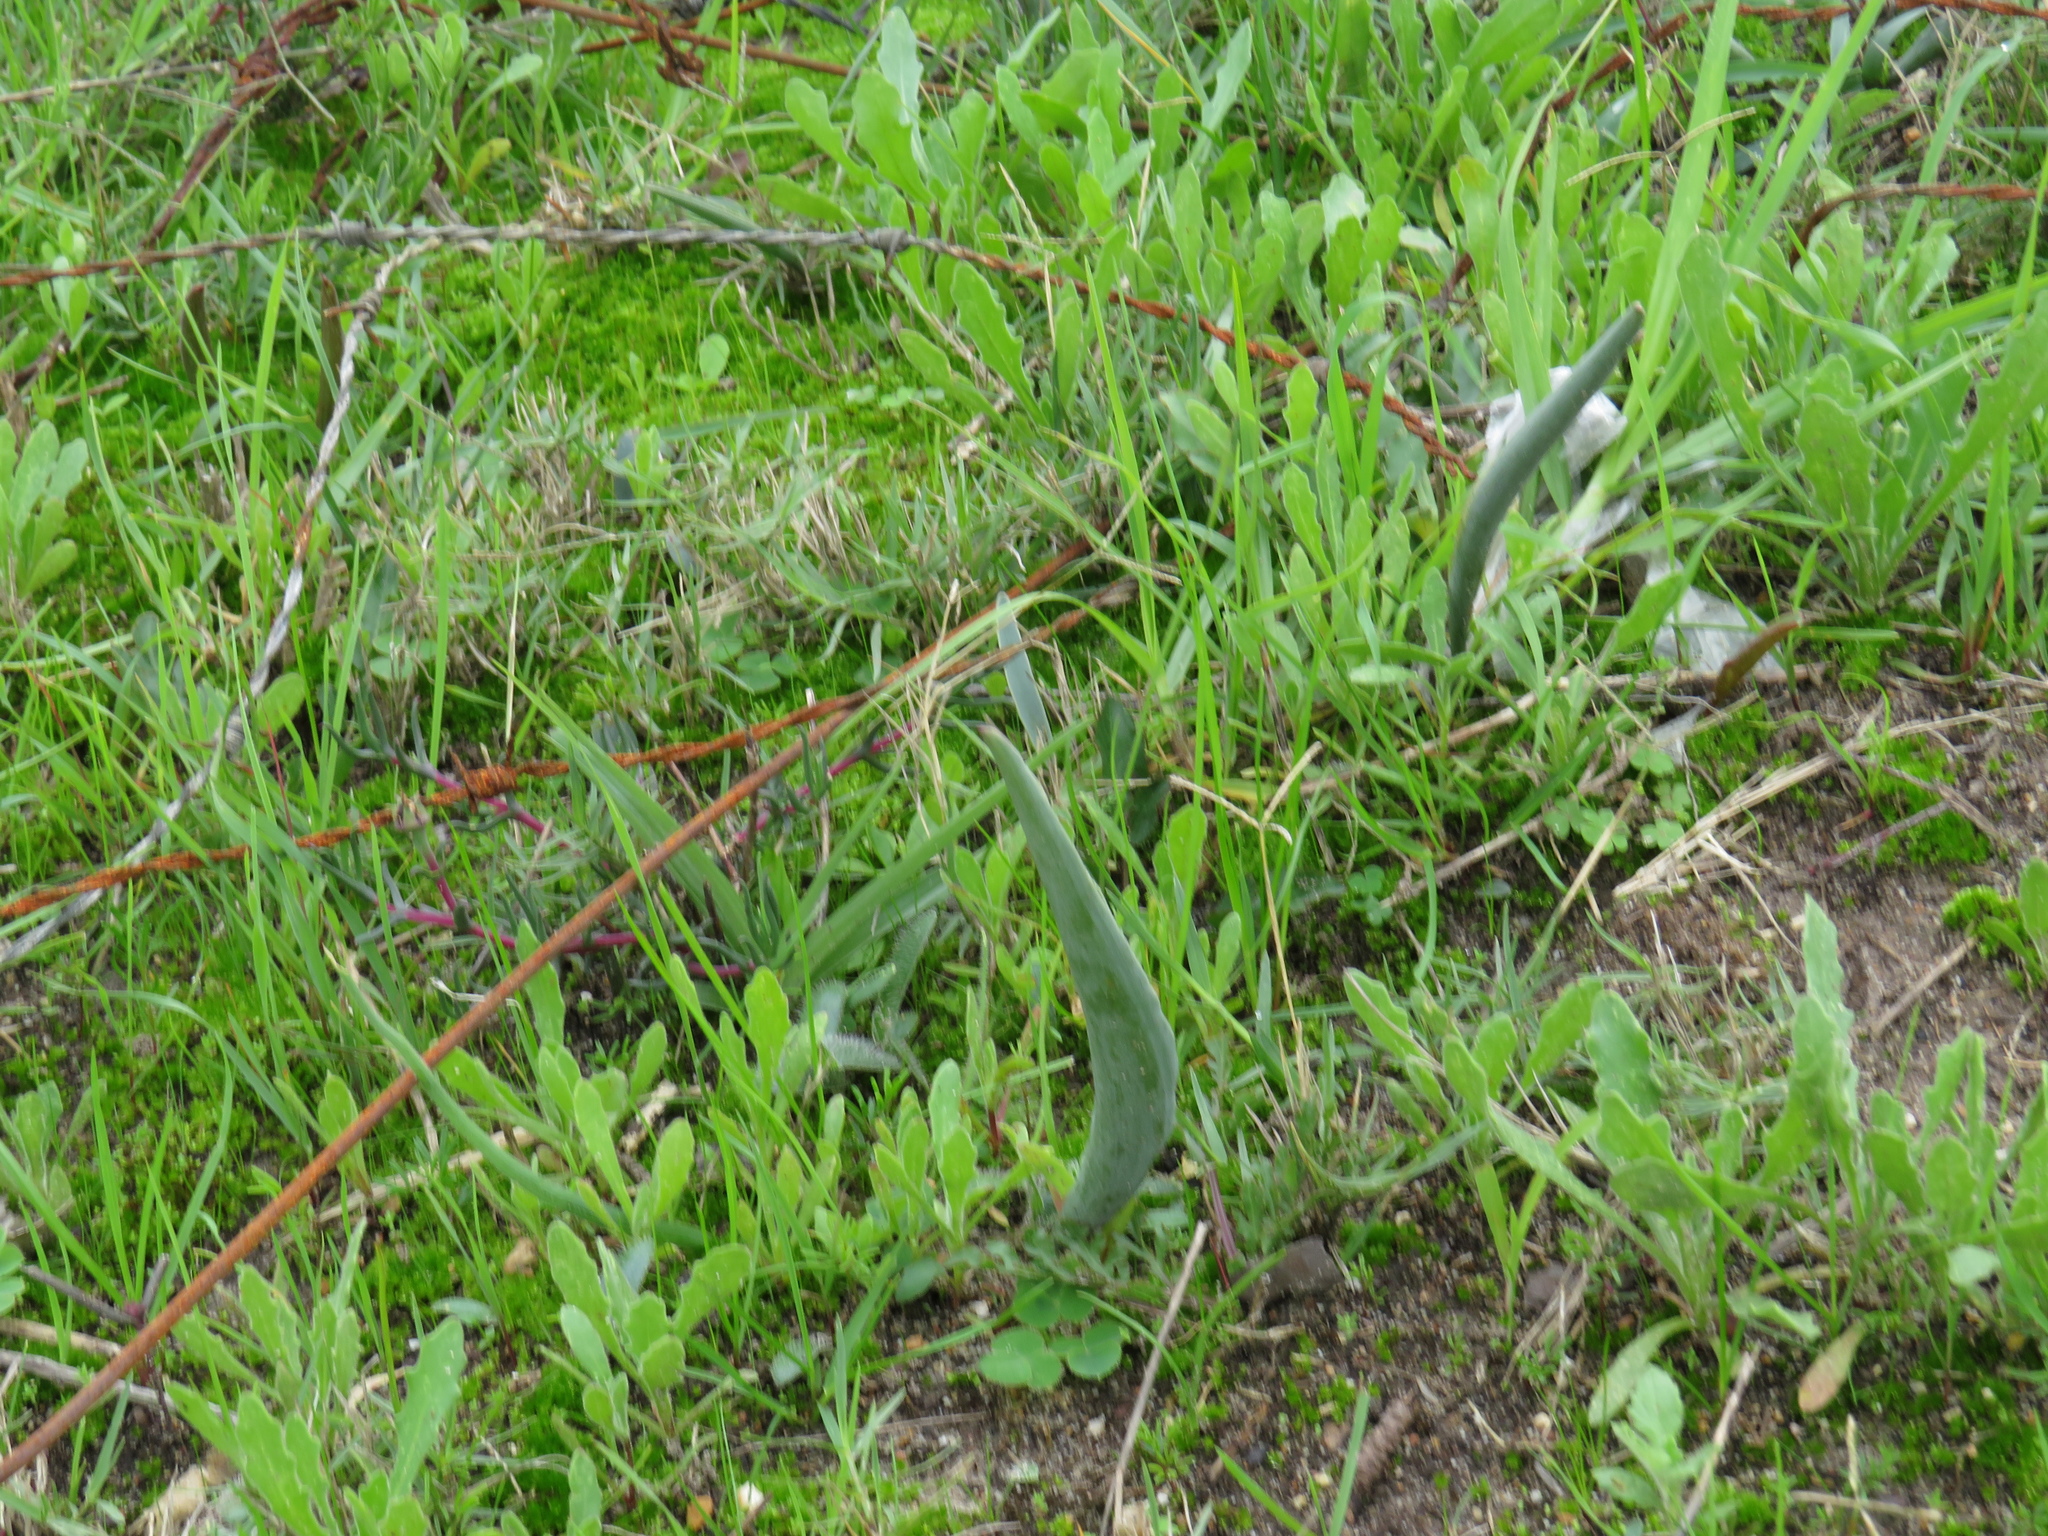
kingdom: Plantae
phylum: Tracheophyta
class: Liliopsida
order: Asparagales
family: Asparagaceae
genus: Eriospermum
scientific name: Eriospermum lanceifolium
